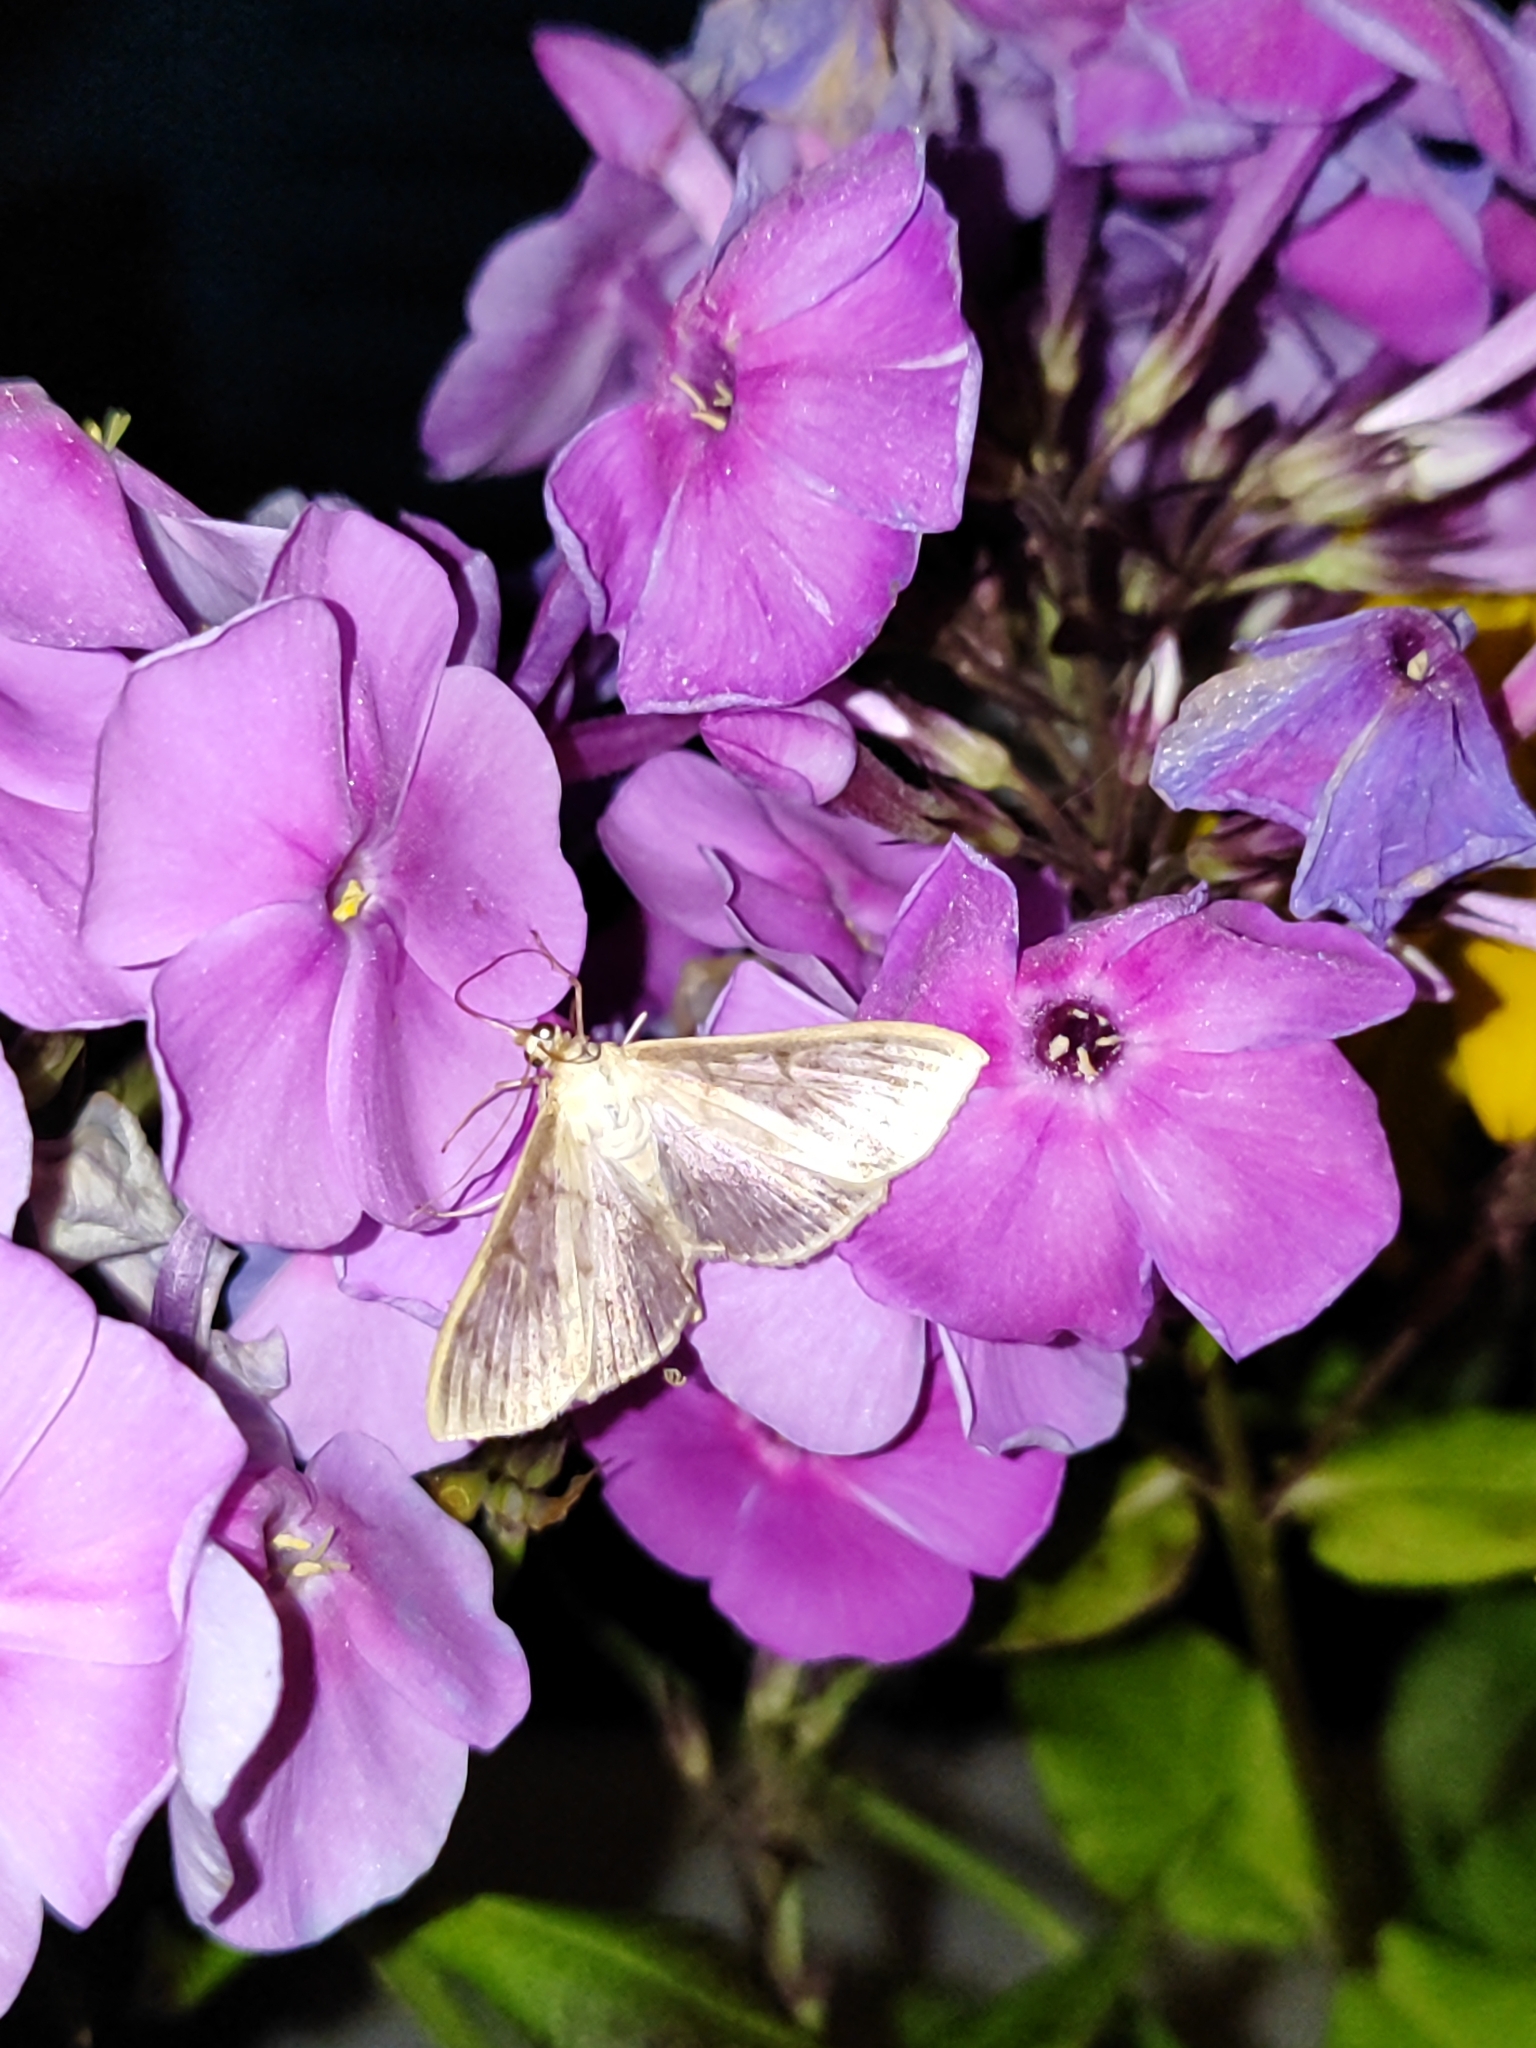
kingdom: Animalia
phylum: Arthropoda
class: Insecta
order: Lepidoptera
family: Crambidae
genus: Patania
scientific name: Patania ruralis
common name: Mother of pearl
